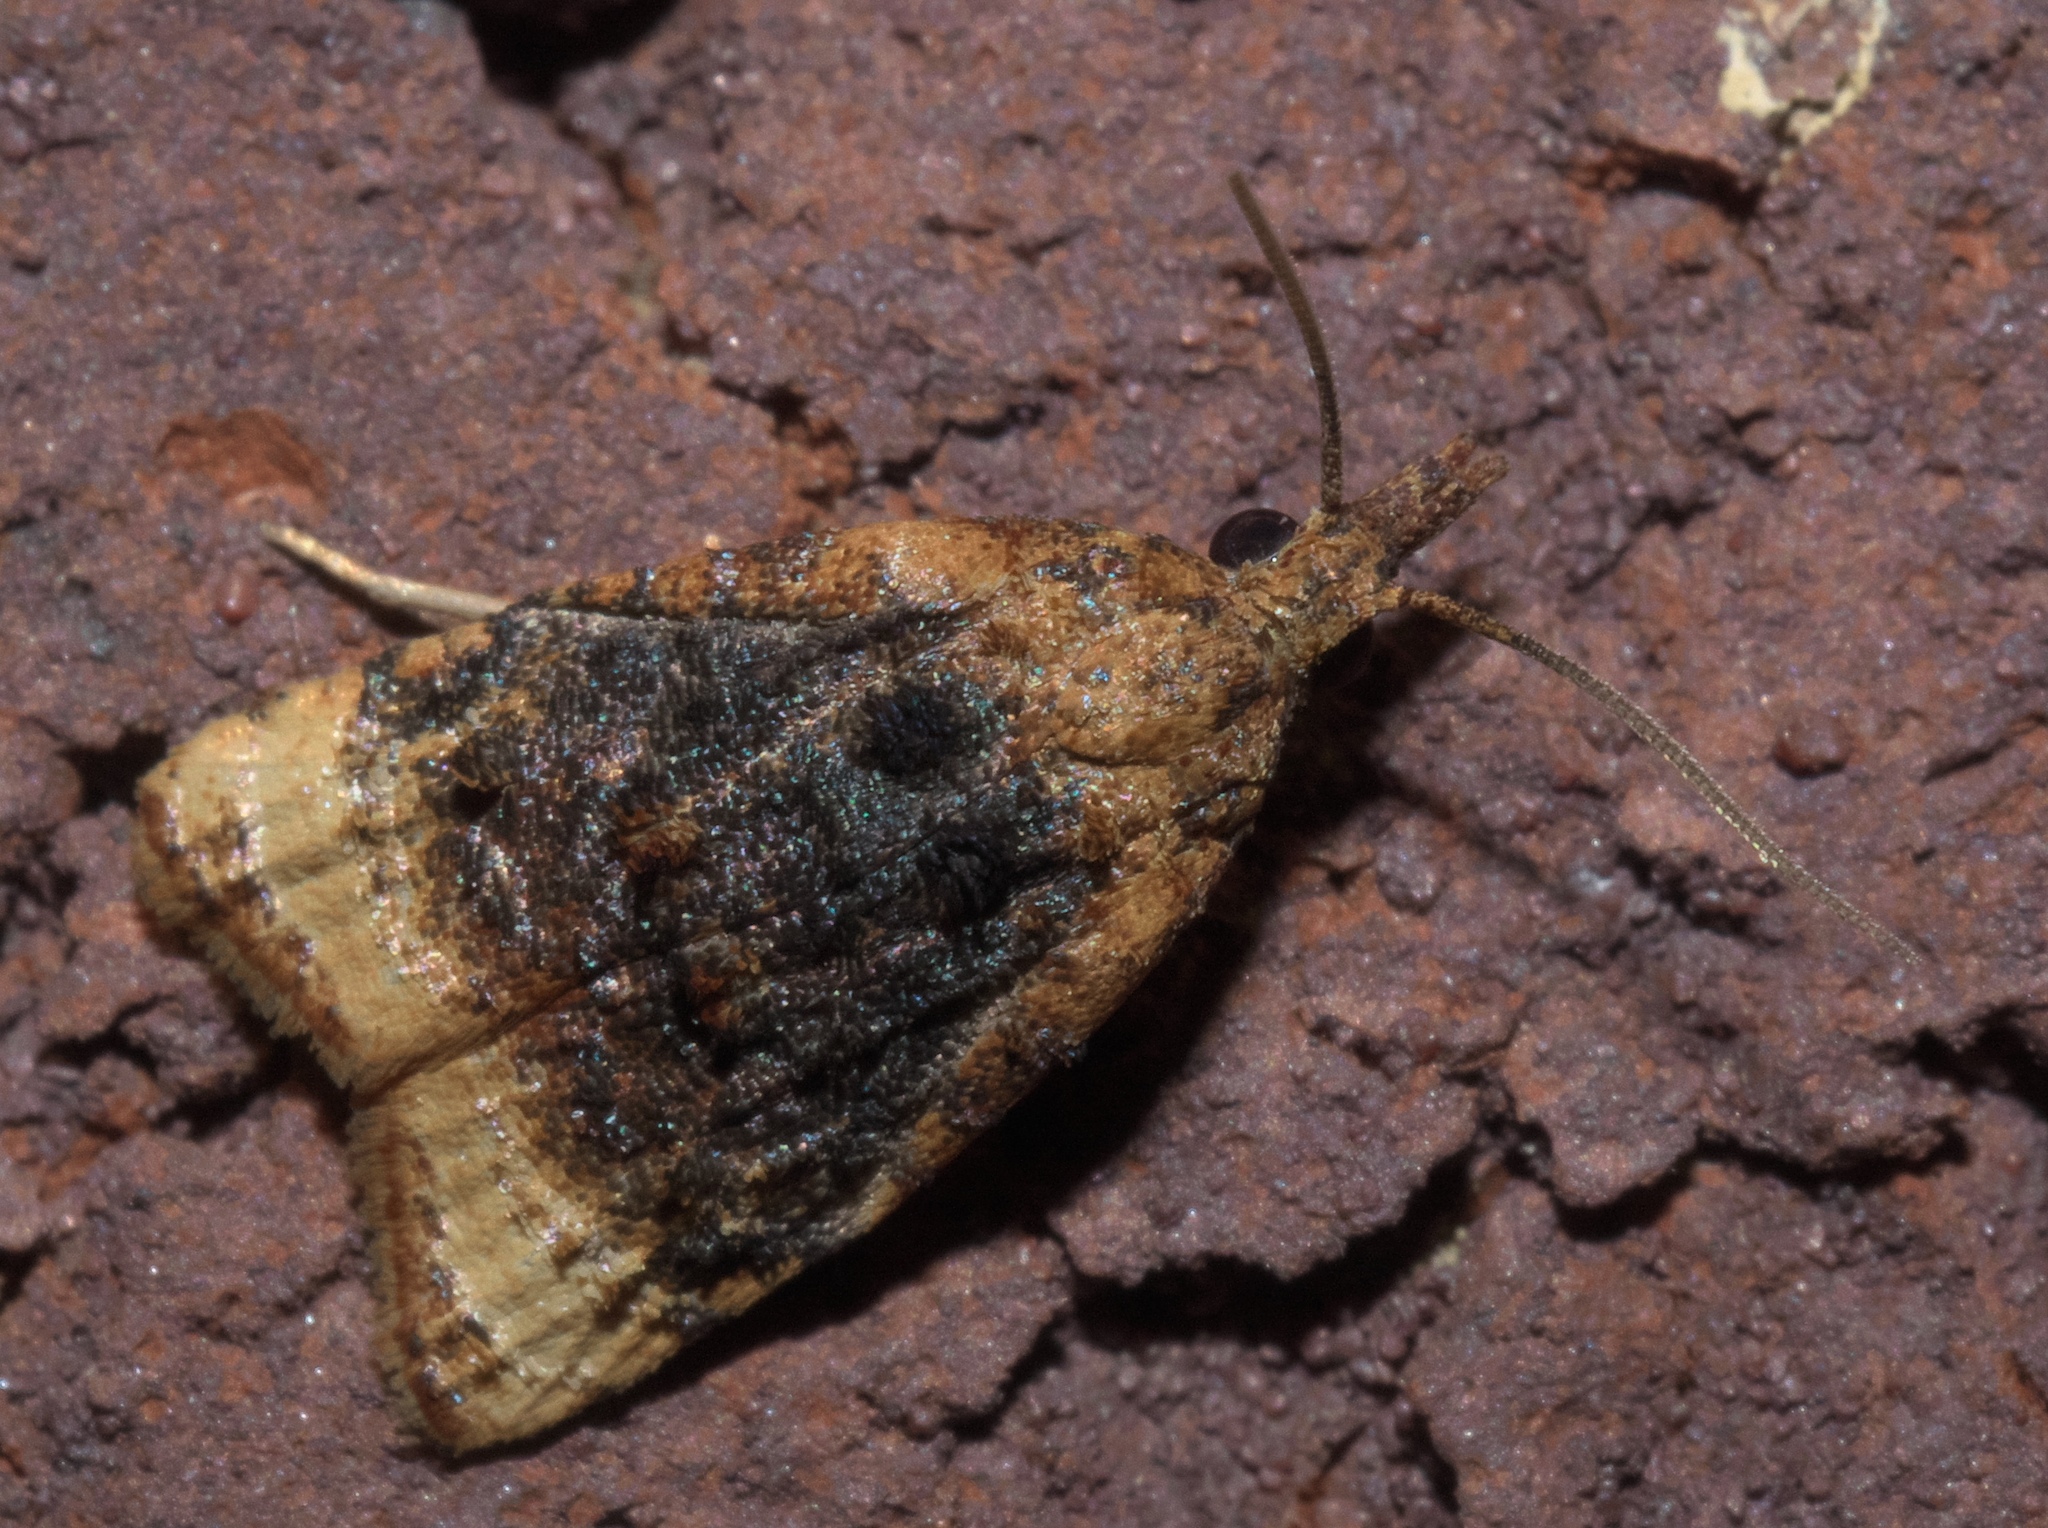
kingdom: Animalia
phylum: Arthropoda
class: Insecta
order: Lepidoptera
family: Tortricidae
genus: Platynota
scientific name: Platynota flavedana
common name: Black-shaded platynota moth
